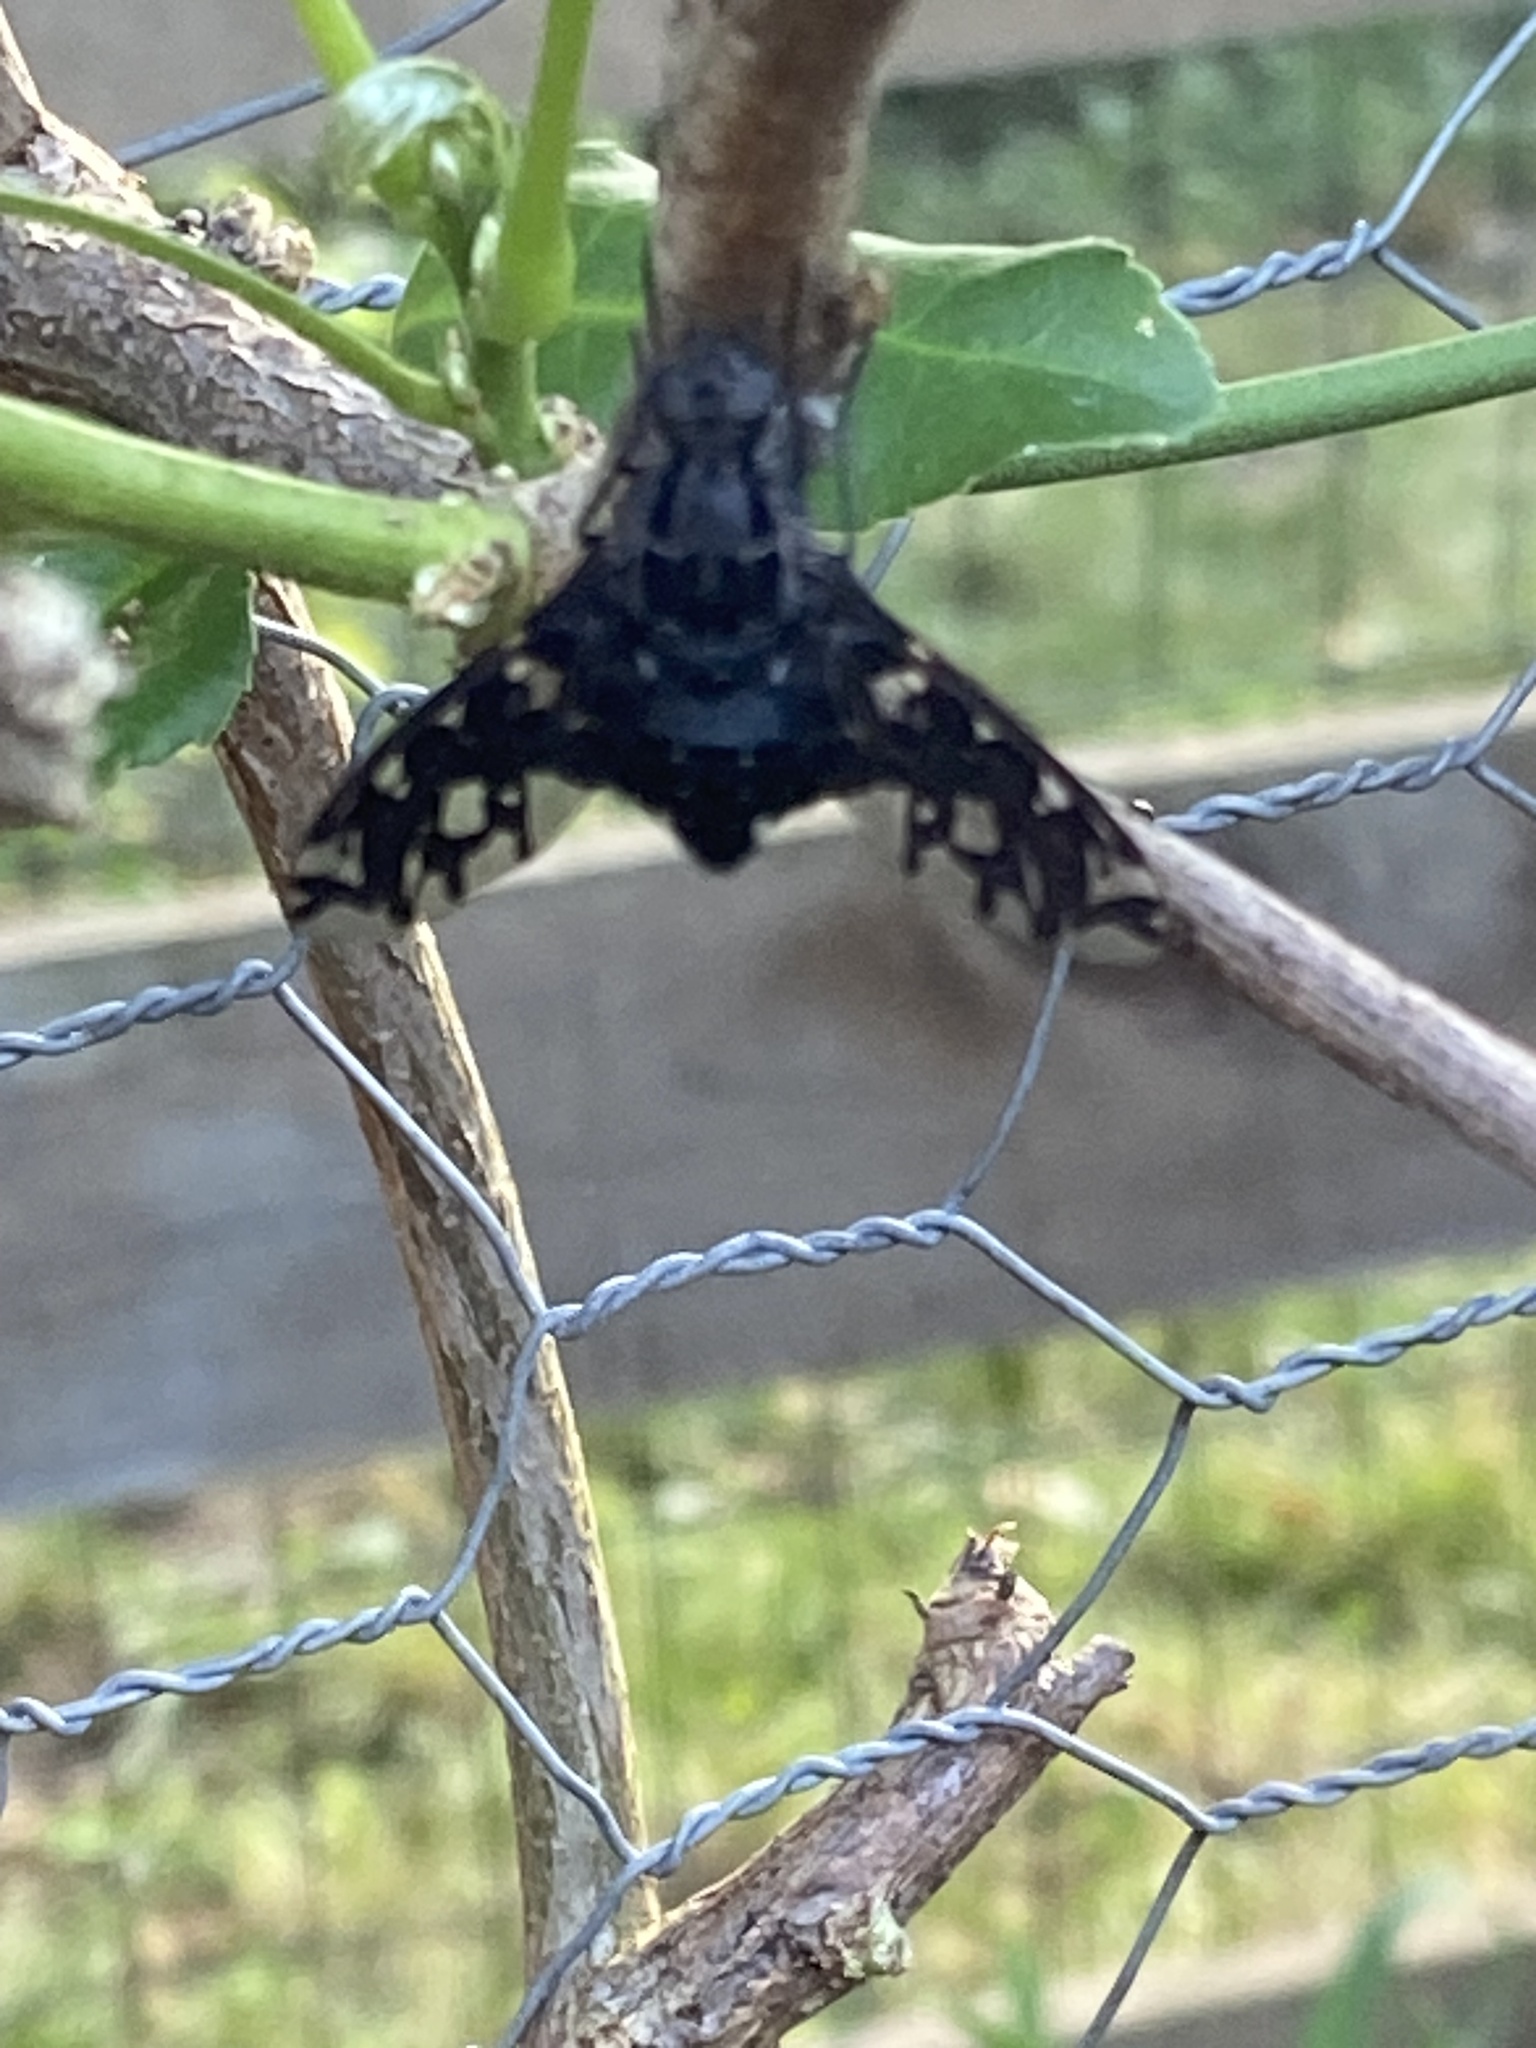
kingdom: Animalia
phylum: Arthropoda
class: Insecta
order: Diptera
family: Bombyliidae
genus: Xenox
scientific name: Xenox tigrinus
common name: Tiger bee fly
